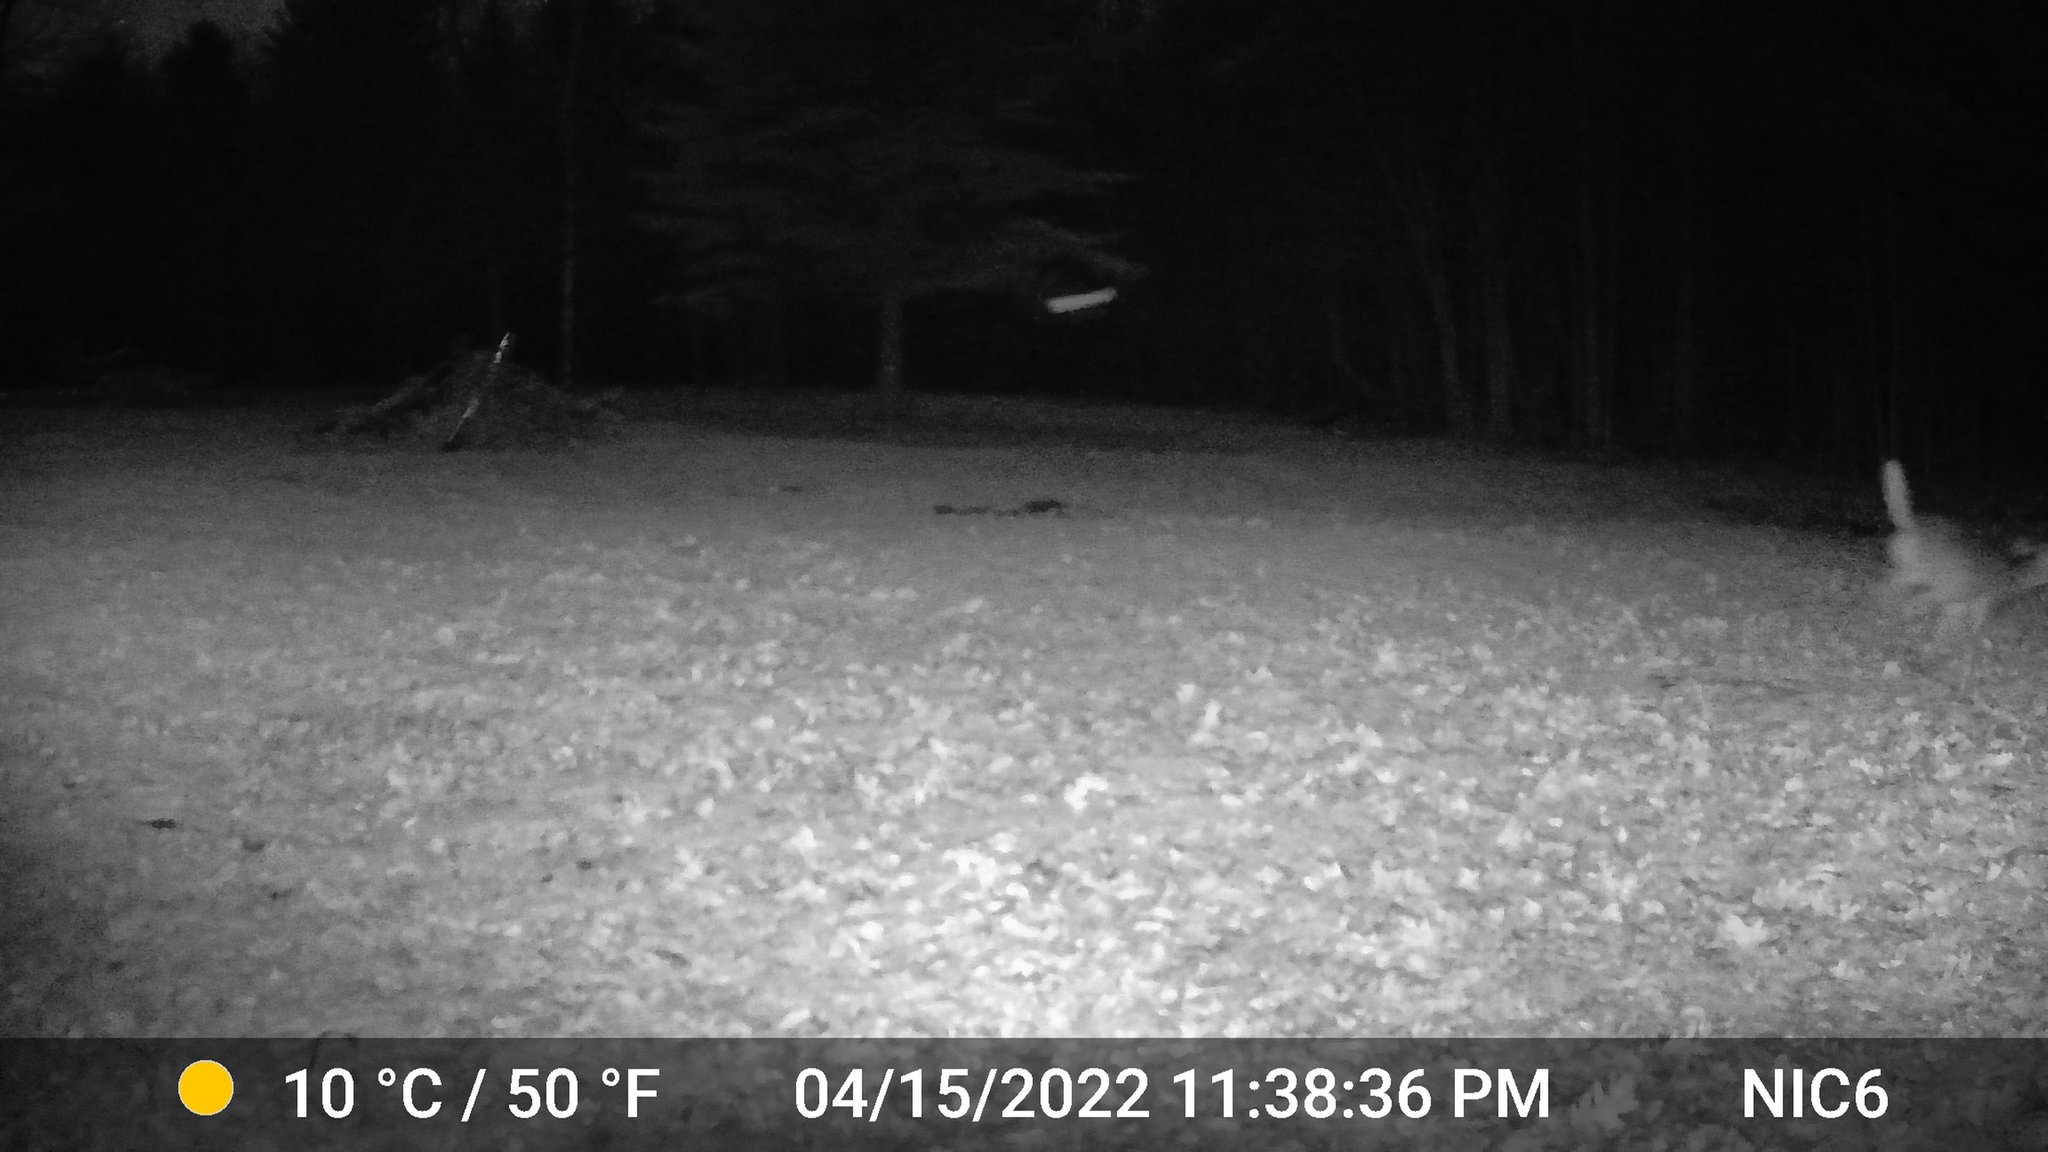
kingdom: Animalia
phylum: Chordata
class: Mammalia
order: Artiodactyla
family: Cervidae
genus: Odocoileus
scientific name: Odocoileus virginianus
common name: White-tailed deer
